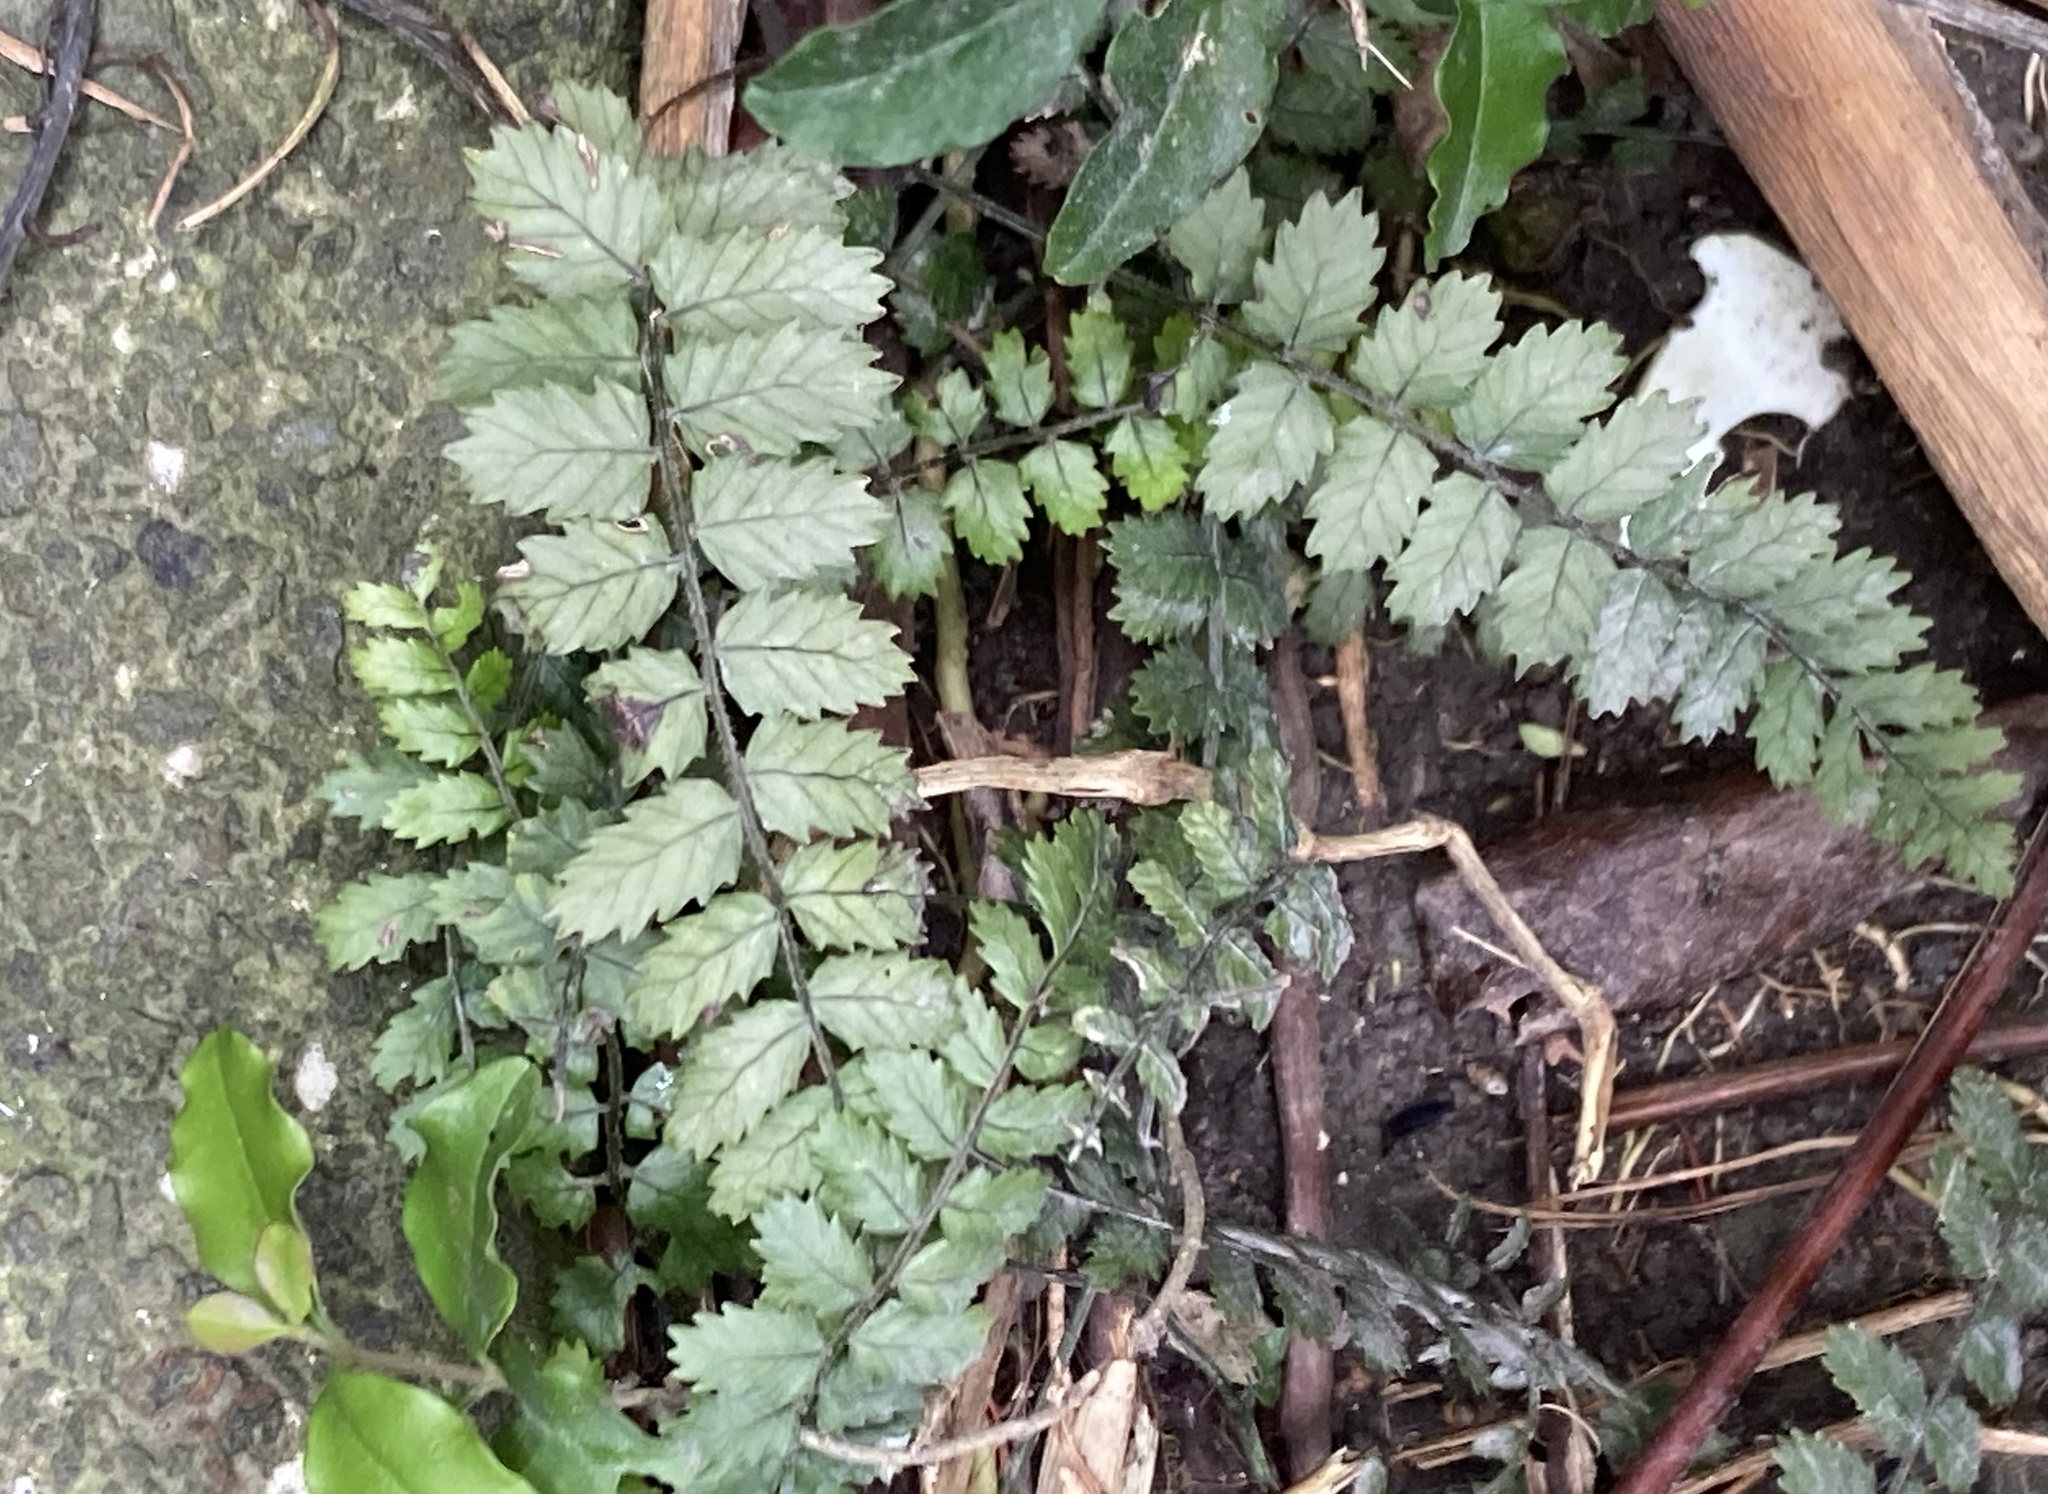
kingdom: Plantae
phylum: Tracheophyta
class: Polypodiopsida
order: Polypodiales
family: Blechnaceae
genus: Icarus
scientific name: Icarus filiformis
